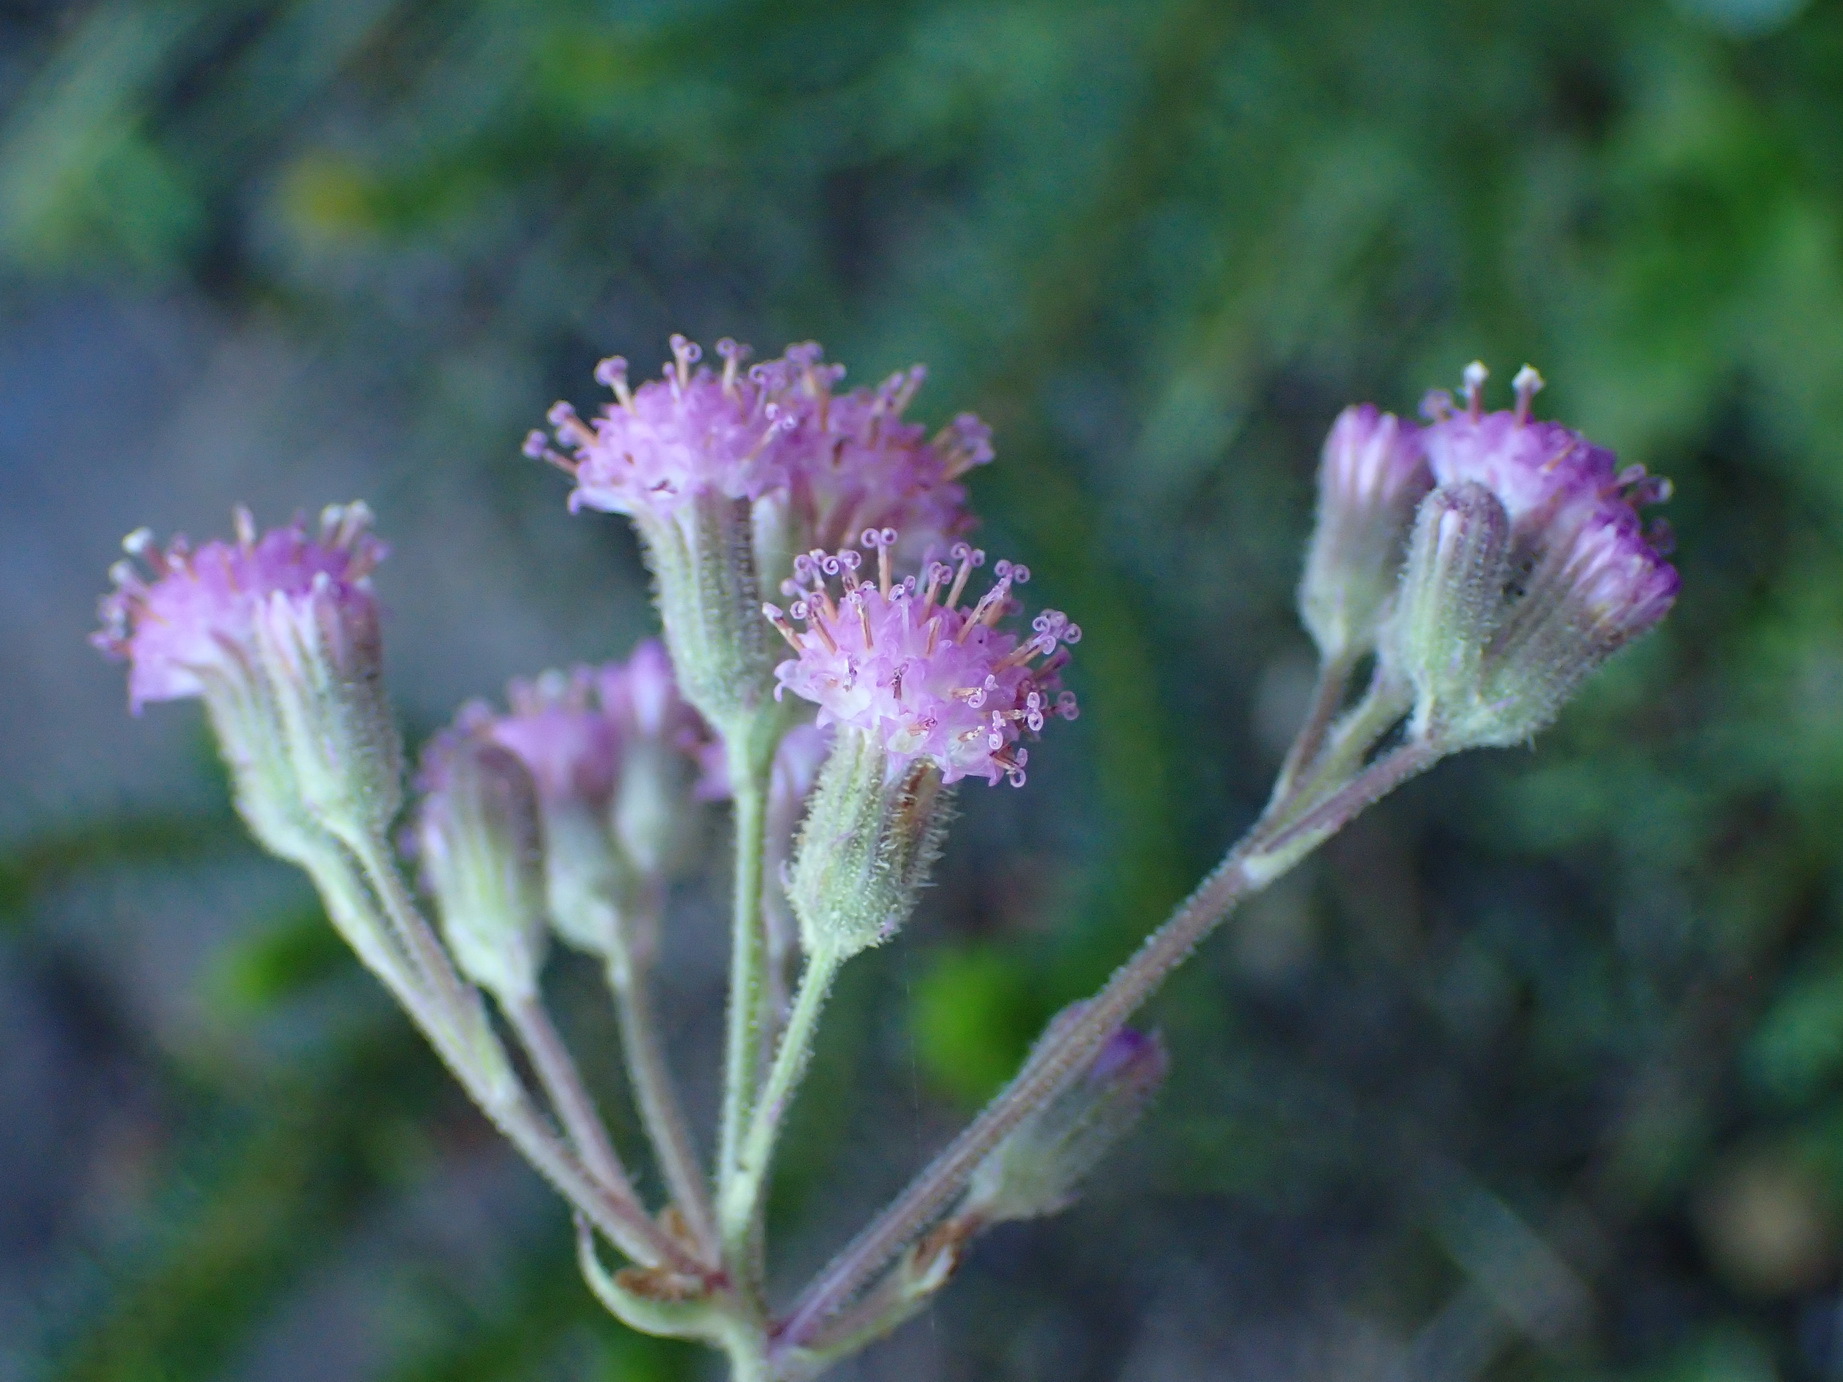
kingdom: Plantae
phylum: Tracheophyta
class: Magnoliopsida
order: Asterales
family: Asteraceae
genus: Senecio
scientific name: Senecio purpureus
